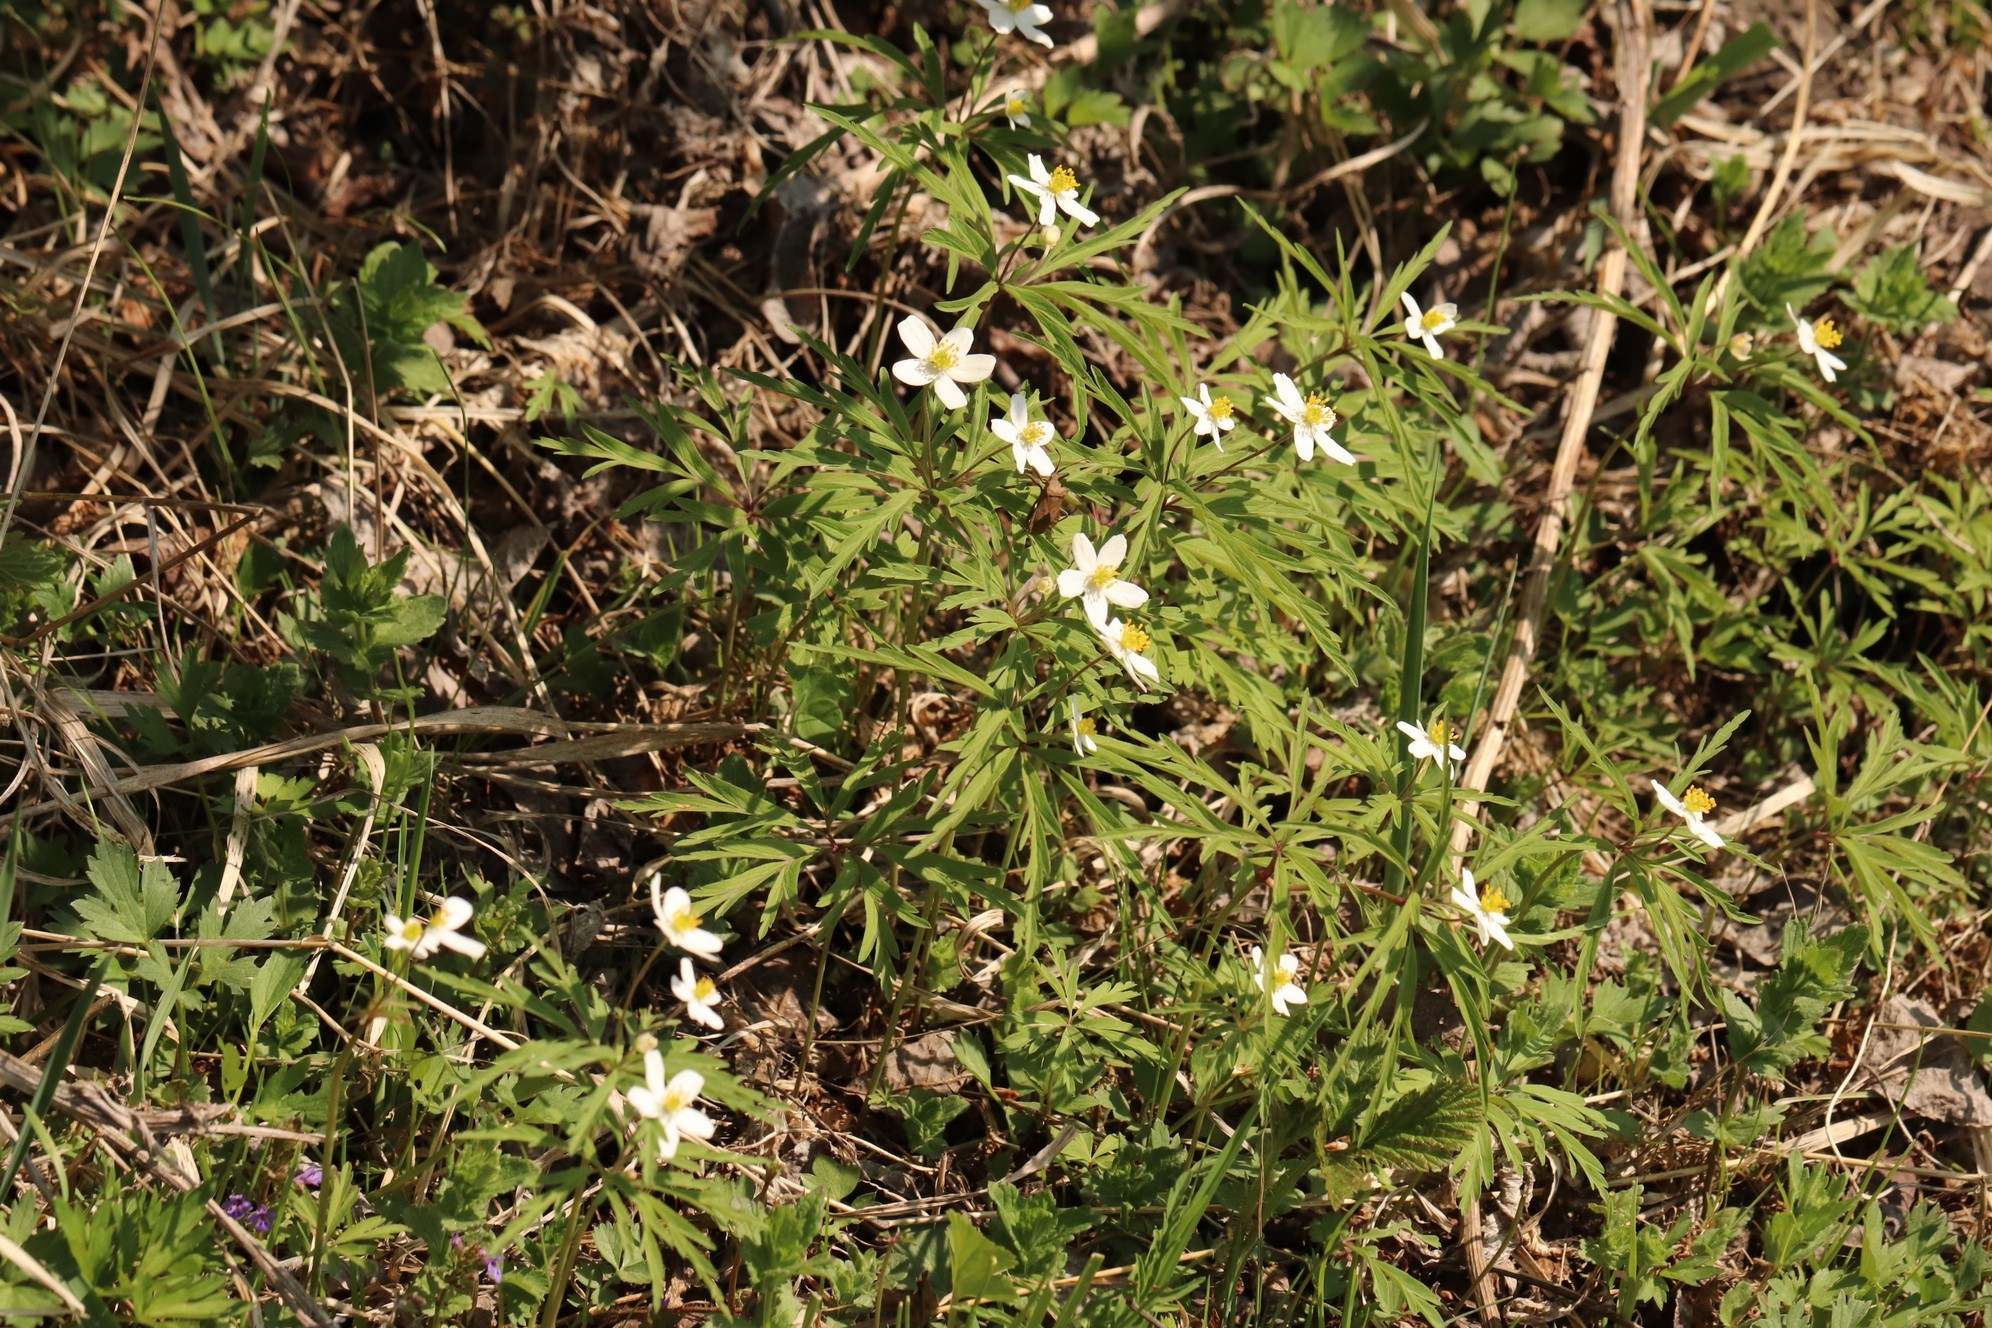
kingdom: Plantae
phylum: Tracheophyta
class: Magnoliopsida
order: Ranunculales
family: Ranunculaceae
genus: Anemone
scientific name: Anemone caerulea
